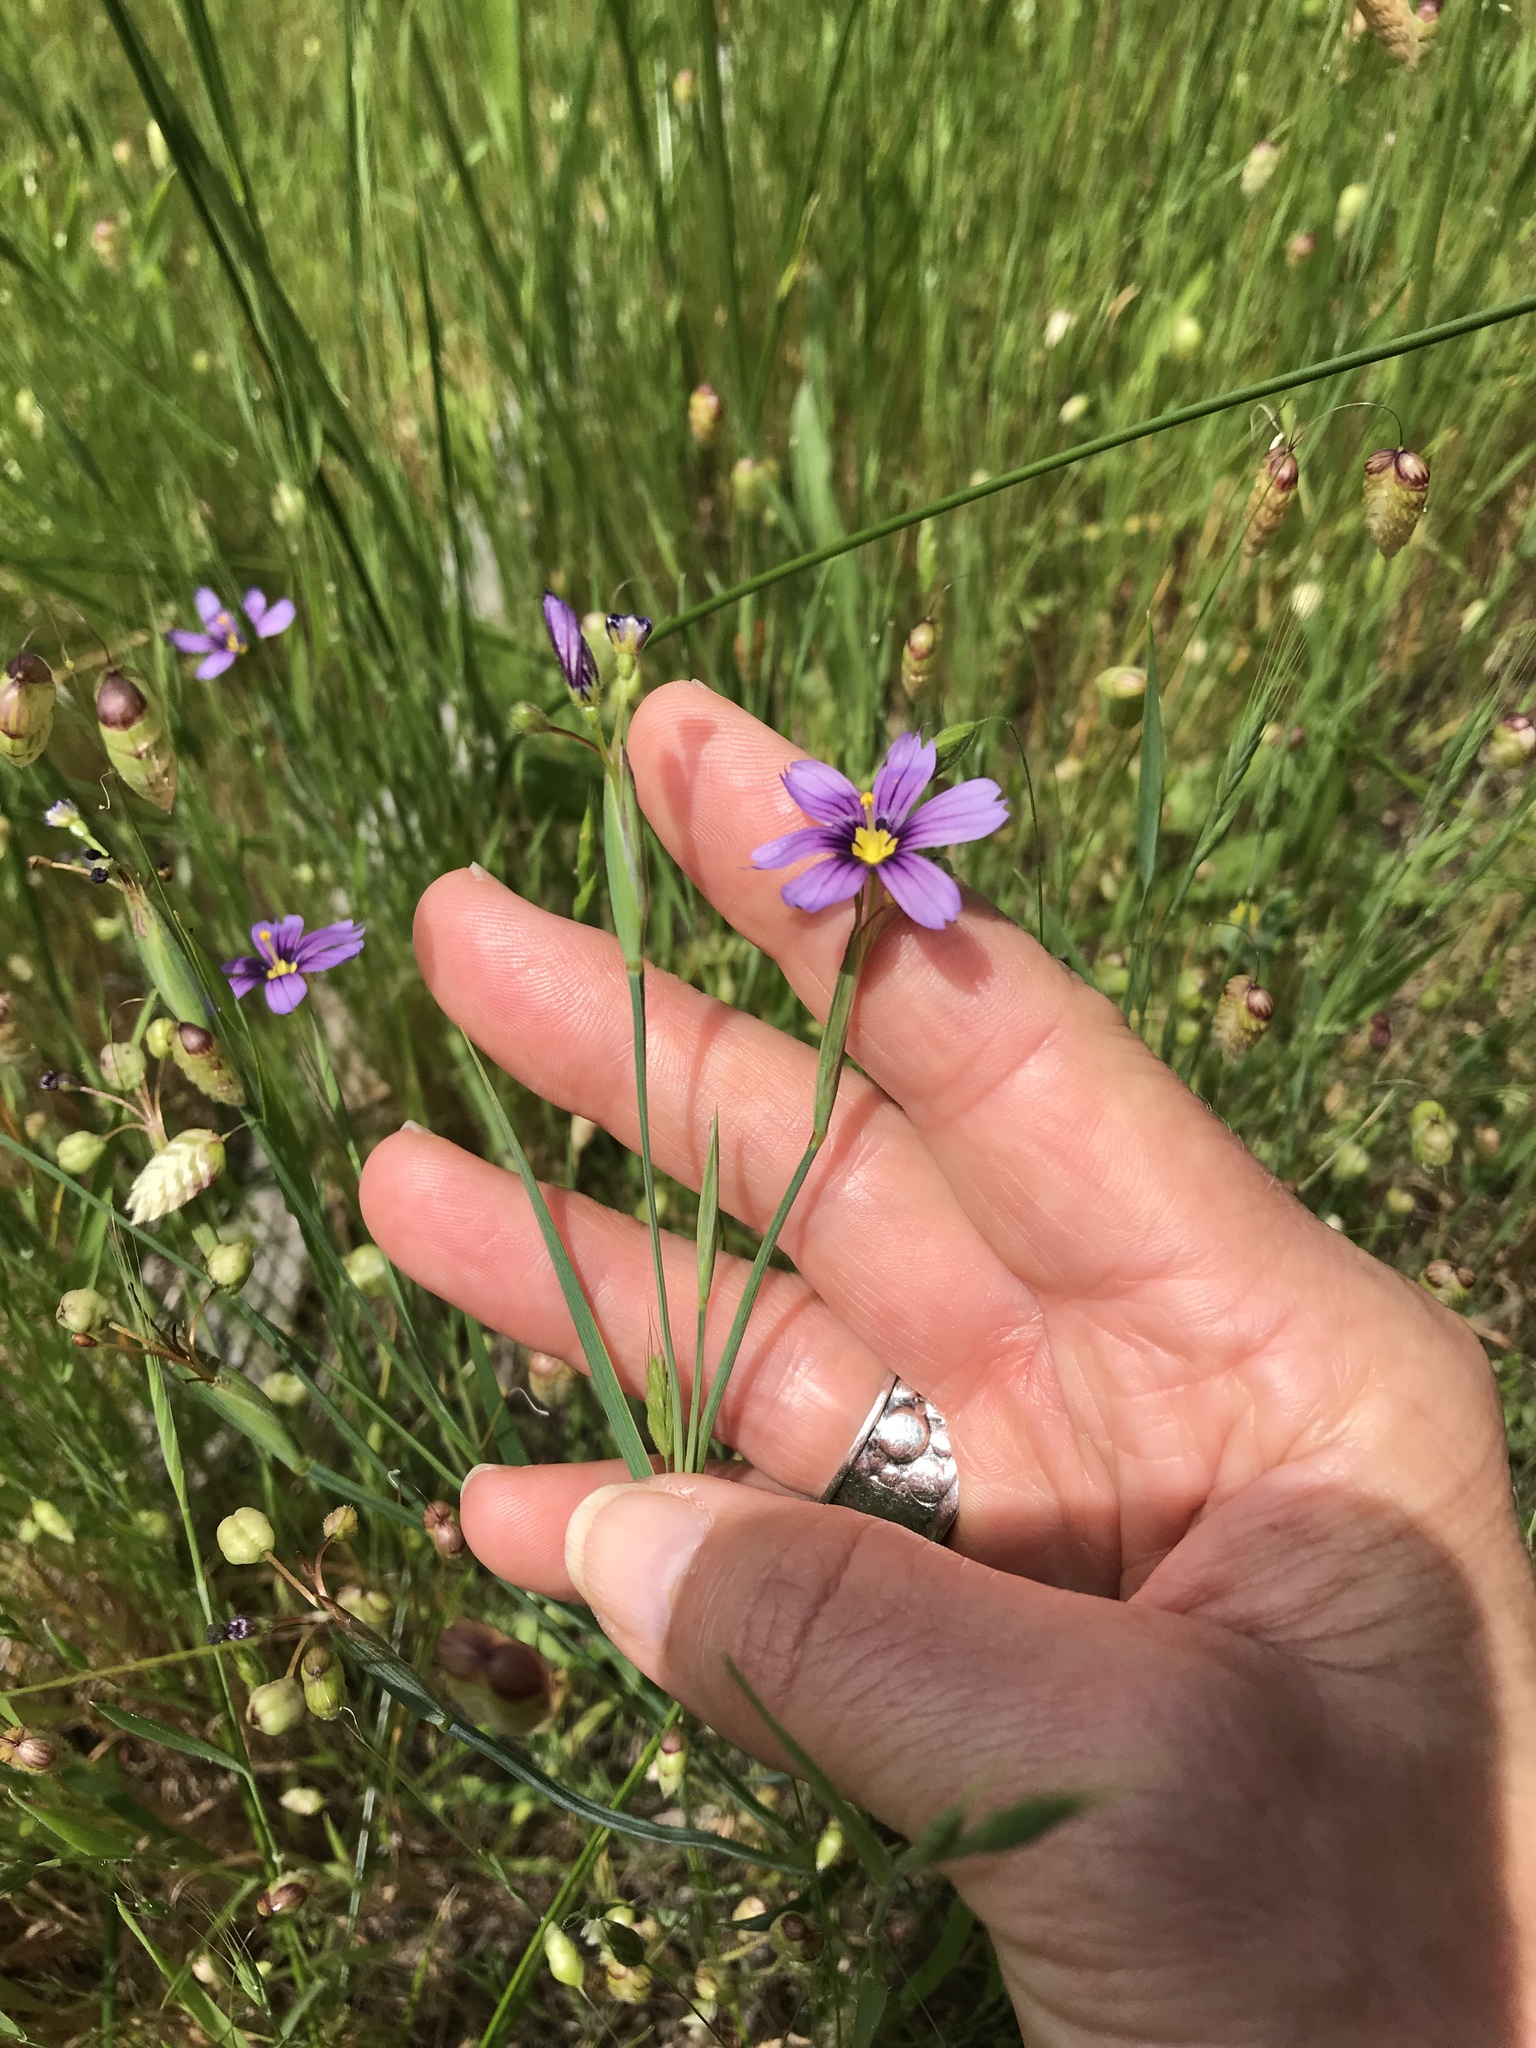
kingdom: Plantae
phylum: Tracheophyta
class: Liliopsida
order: Asparagales
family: Iridaceae
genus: Sisyrinchium
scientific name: Sisyrinchium bellum
